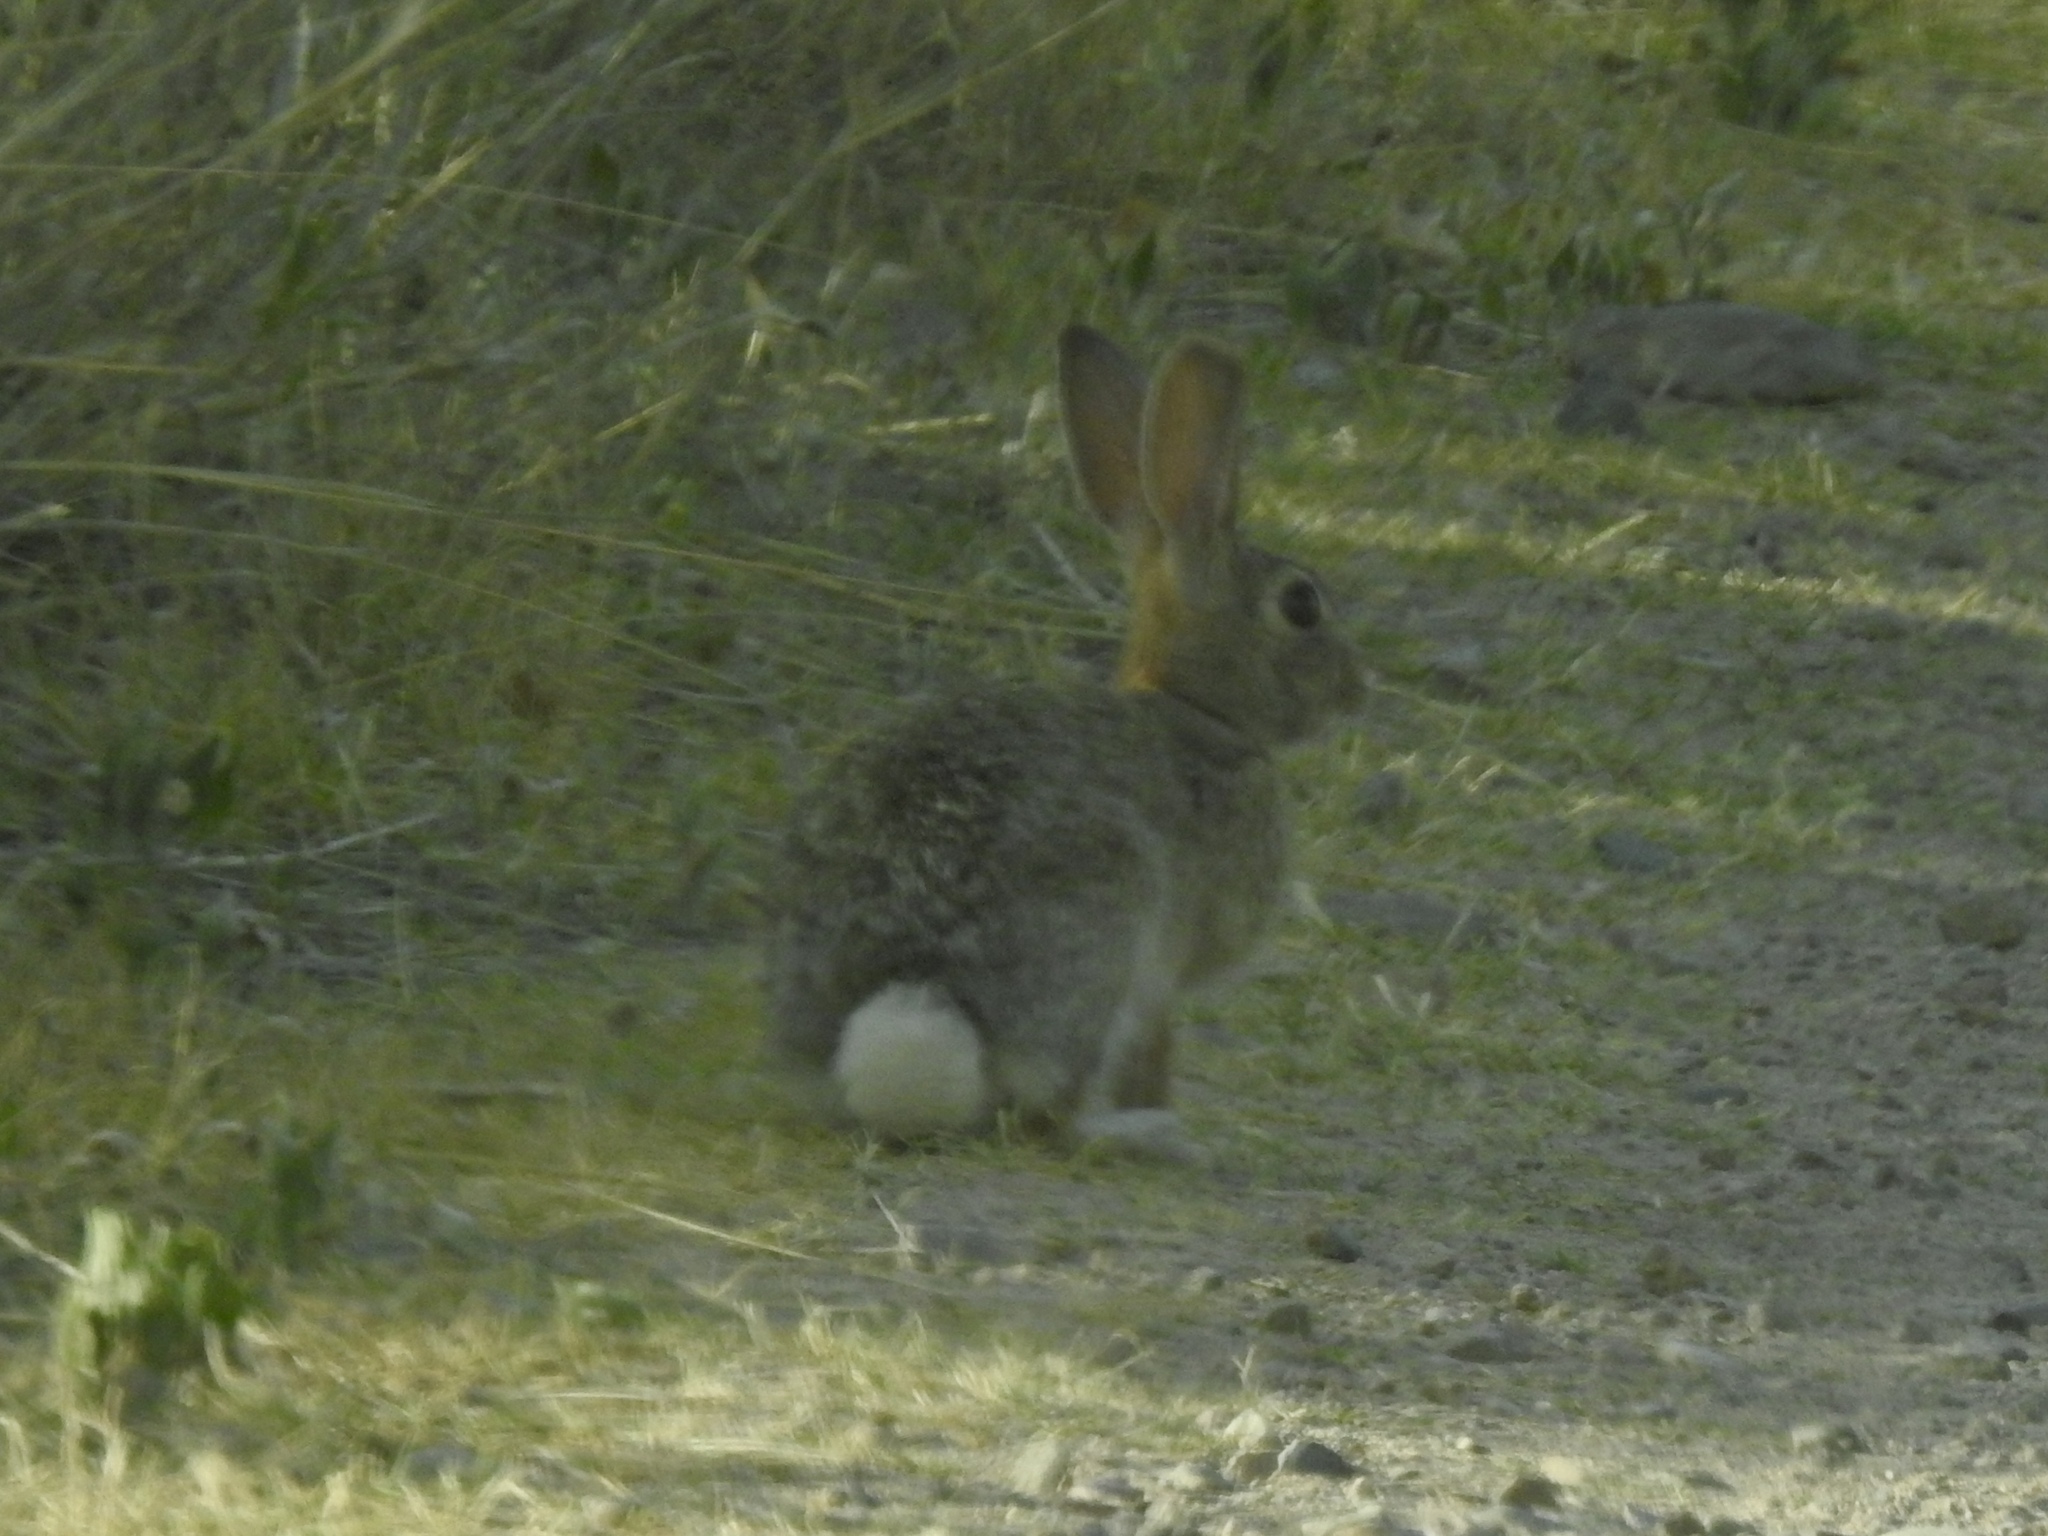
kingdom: Animalia
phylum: Chordata
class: Mammalia
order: Lagomorpha
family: Leporidae
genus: Sylvilagus
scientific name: Sylvilagus audubonii
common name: Desert cottontail
